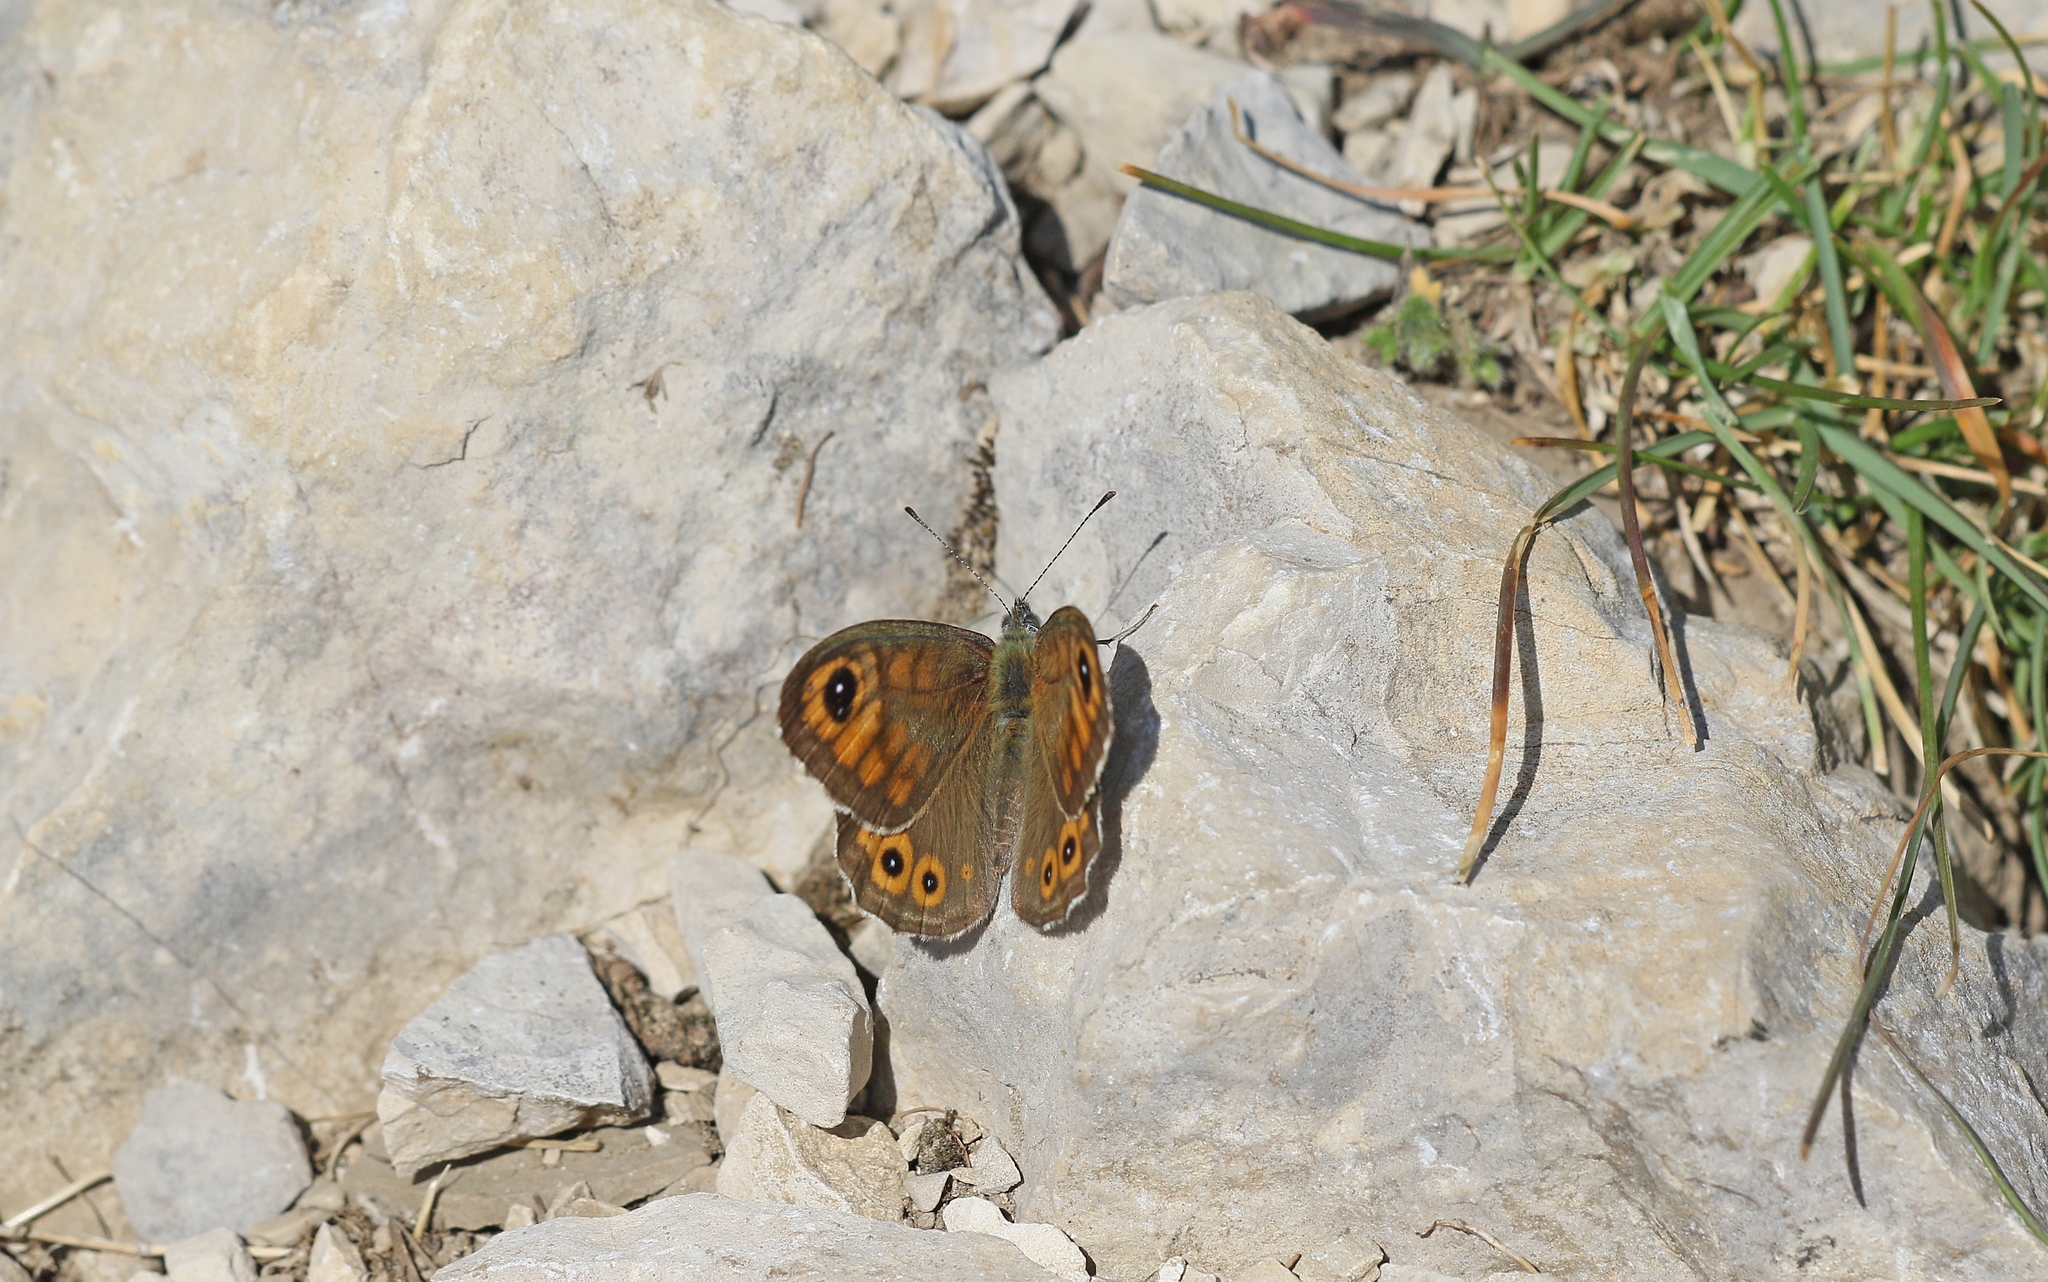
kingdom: Animalia
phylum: Arthropoda
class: Insecta
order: Lepidoptera
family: Nymphalidae
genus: Pararge
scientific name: Pararge Lasiommata maera
